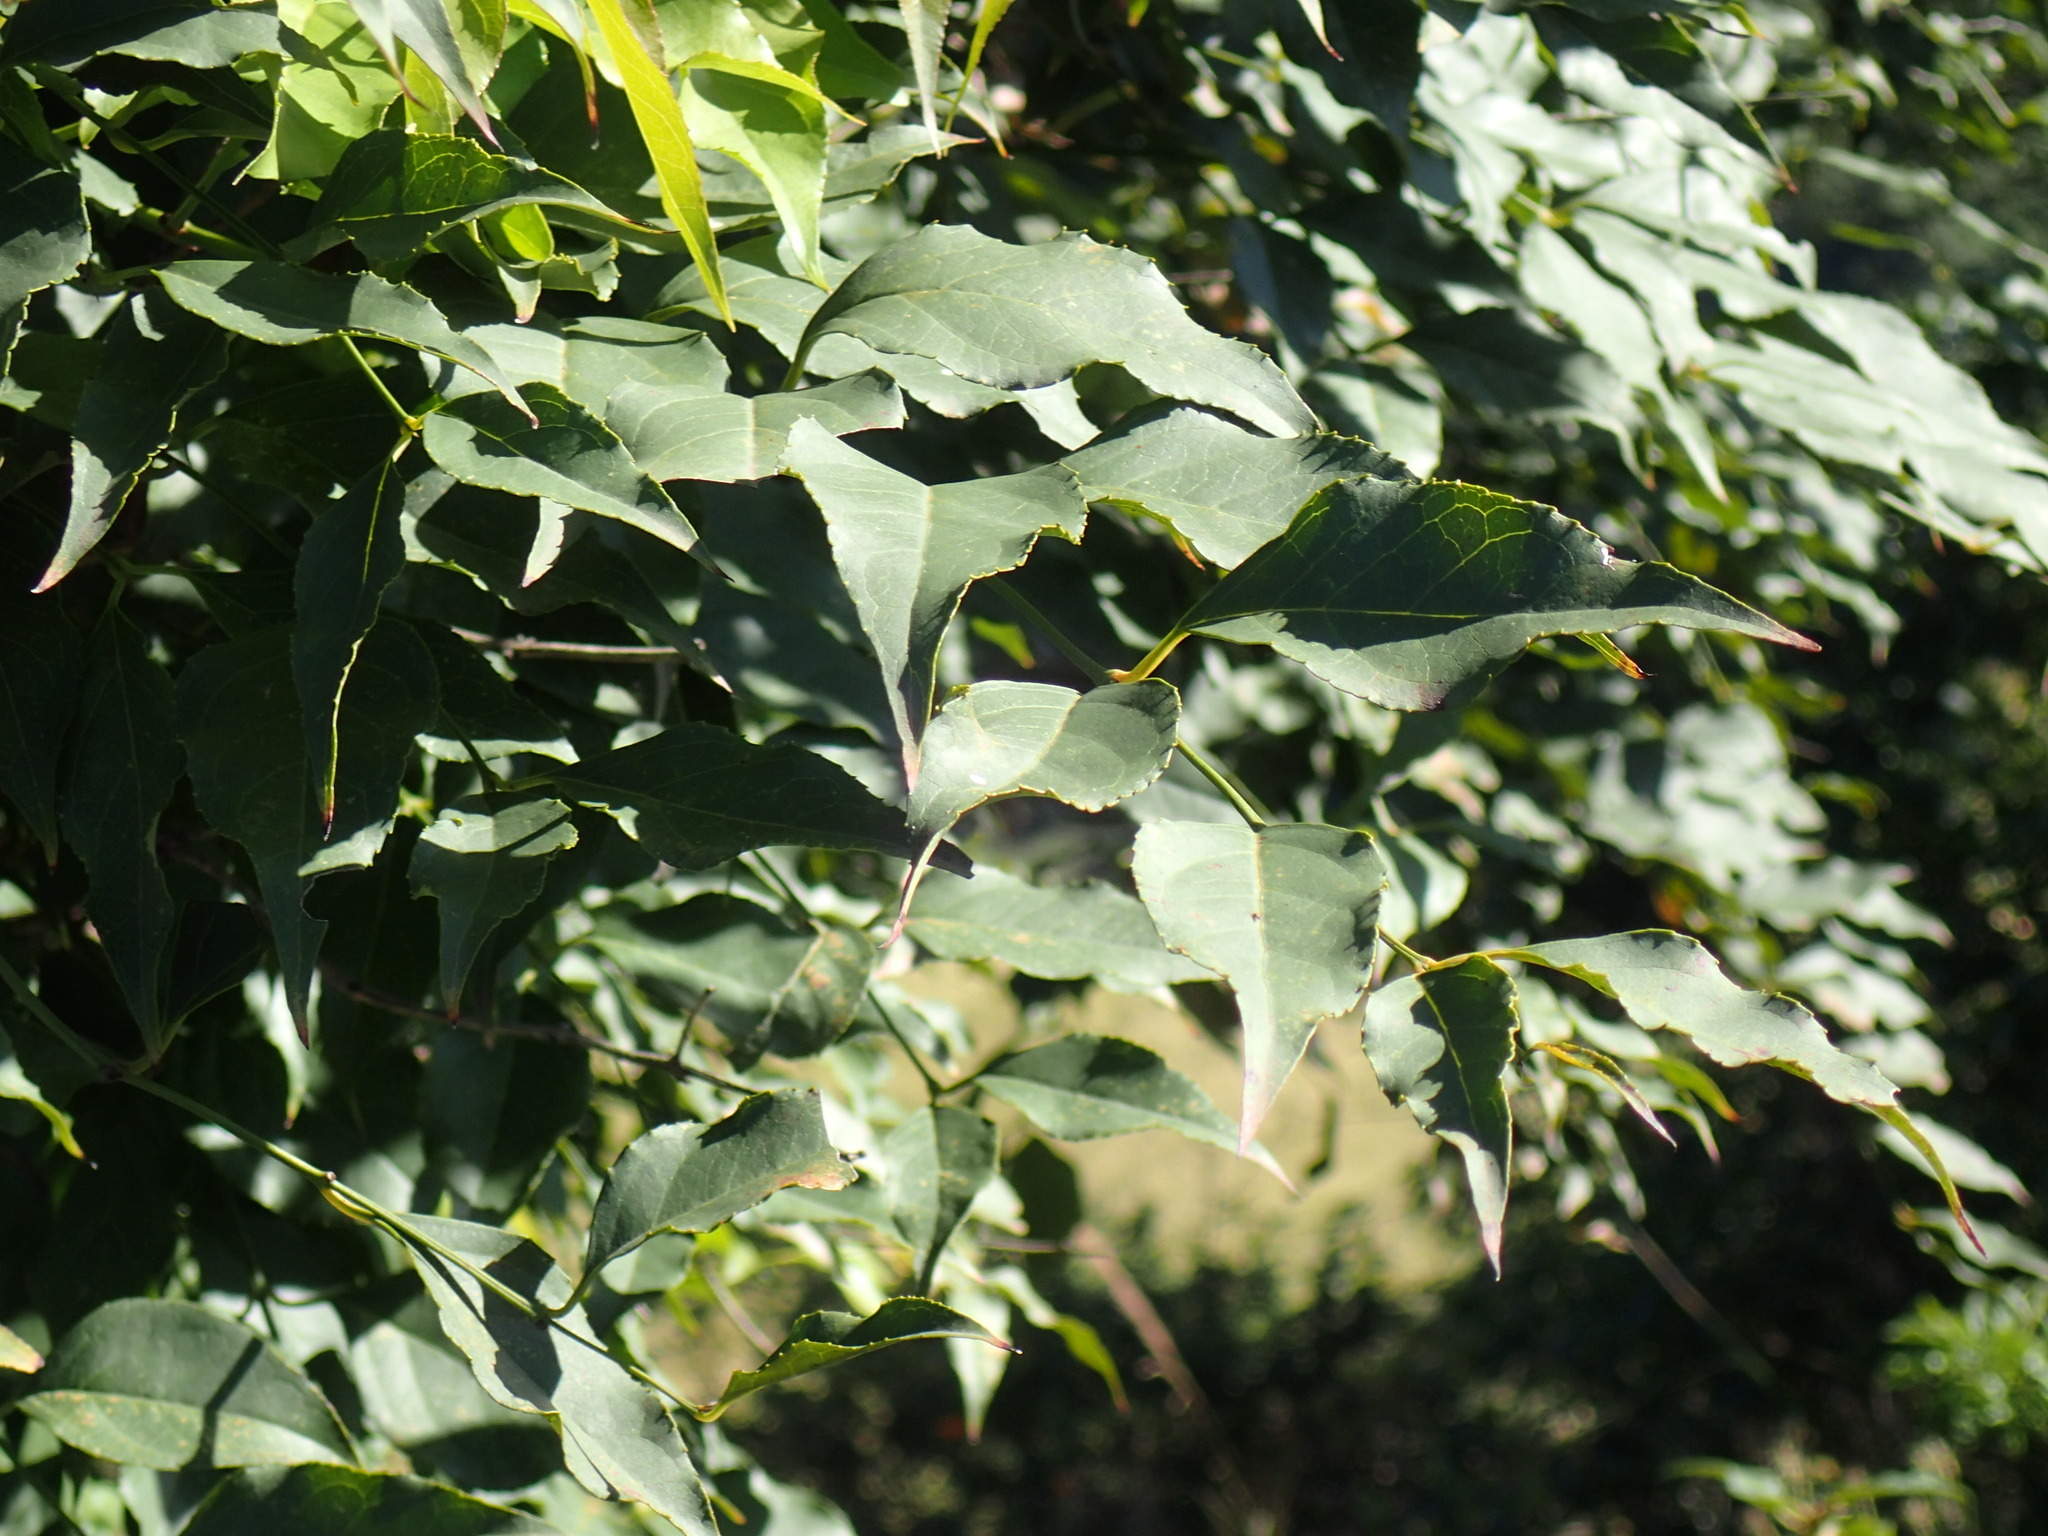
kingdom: Plantae
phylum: Tracheophyta
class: Magnoliopsida
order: Lamiales
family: Stilbaceae
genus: Halleria
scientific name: Halleria lucida
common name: Tree fuschia
